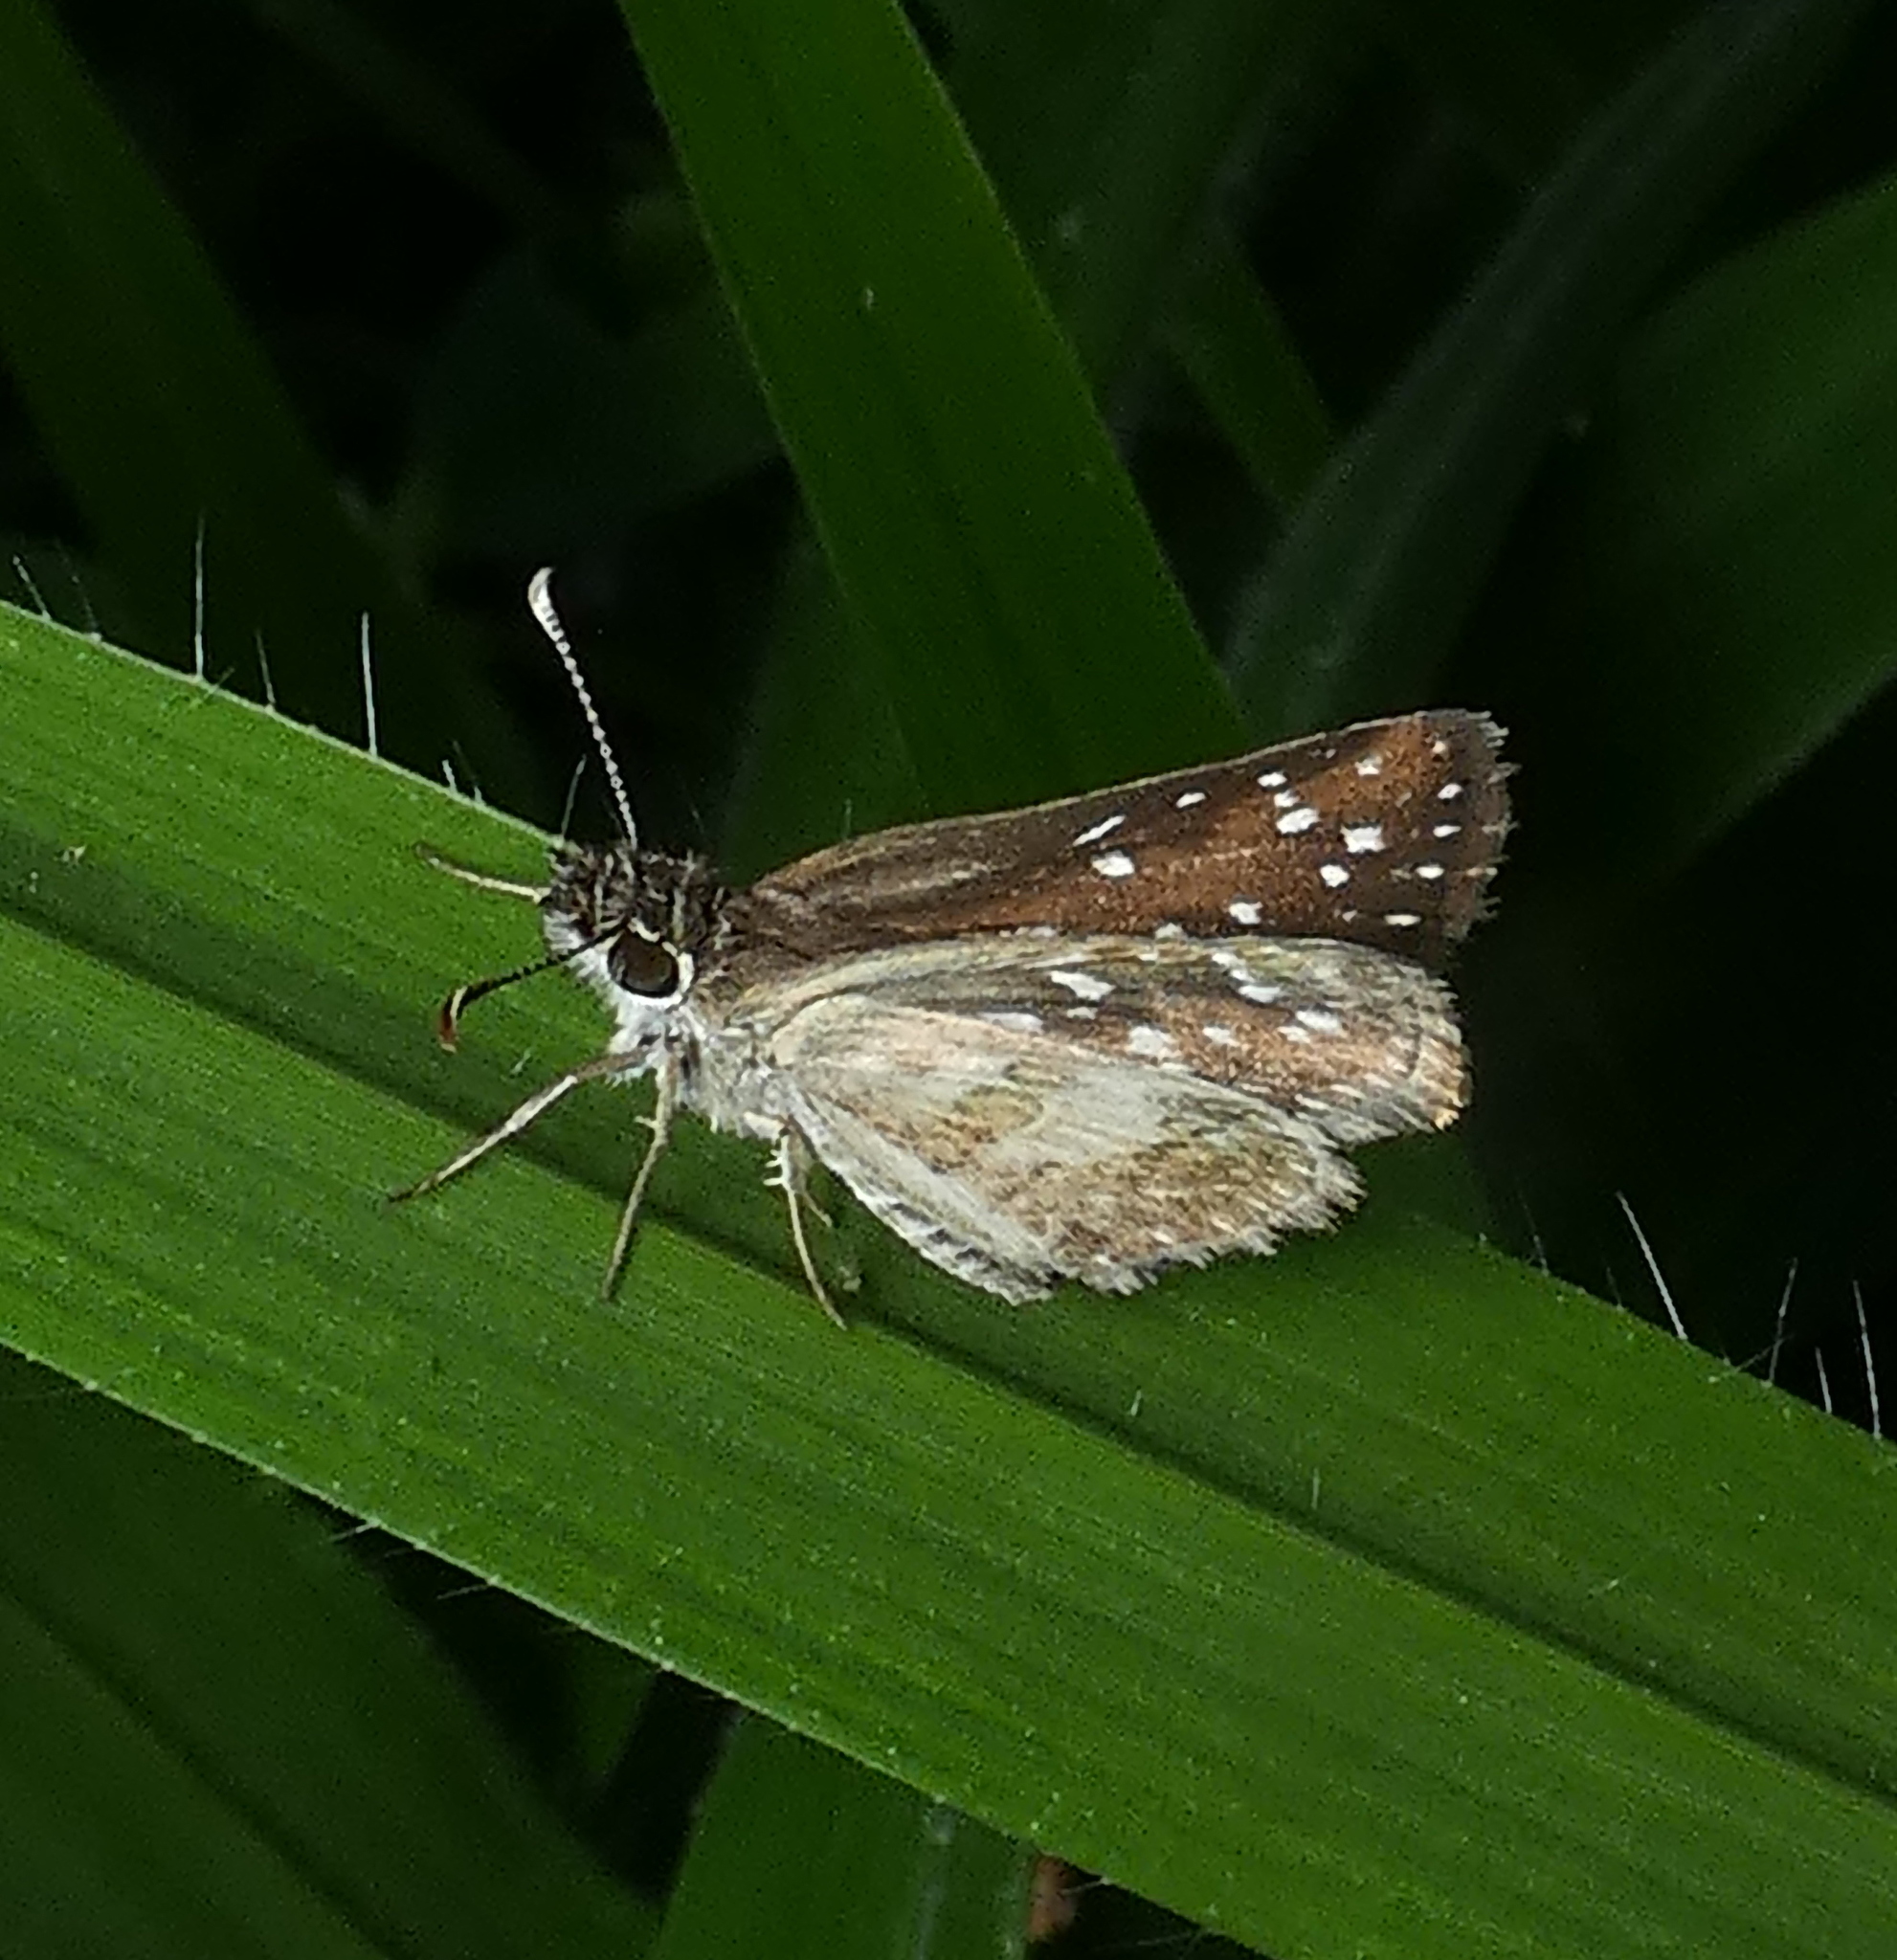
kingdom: Animalia
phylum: Arthropoda
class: Insecta
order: Lepidoptera
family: Hesperiidae
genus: Chirgus
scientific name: Chirgus
